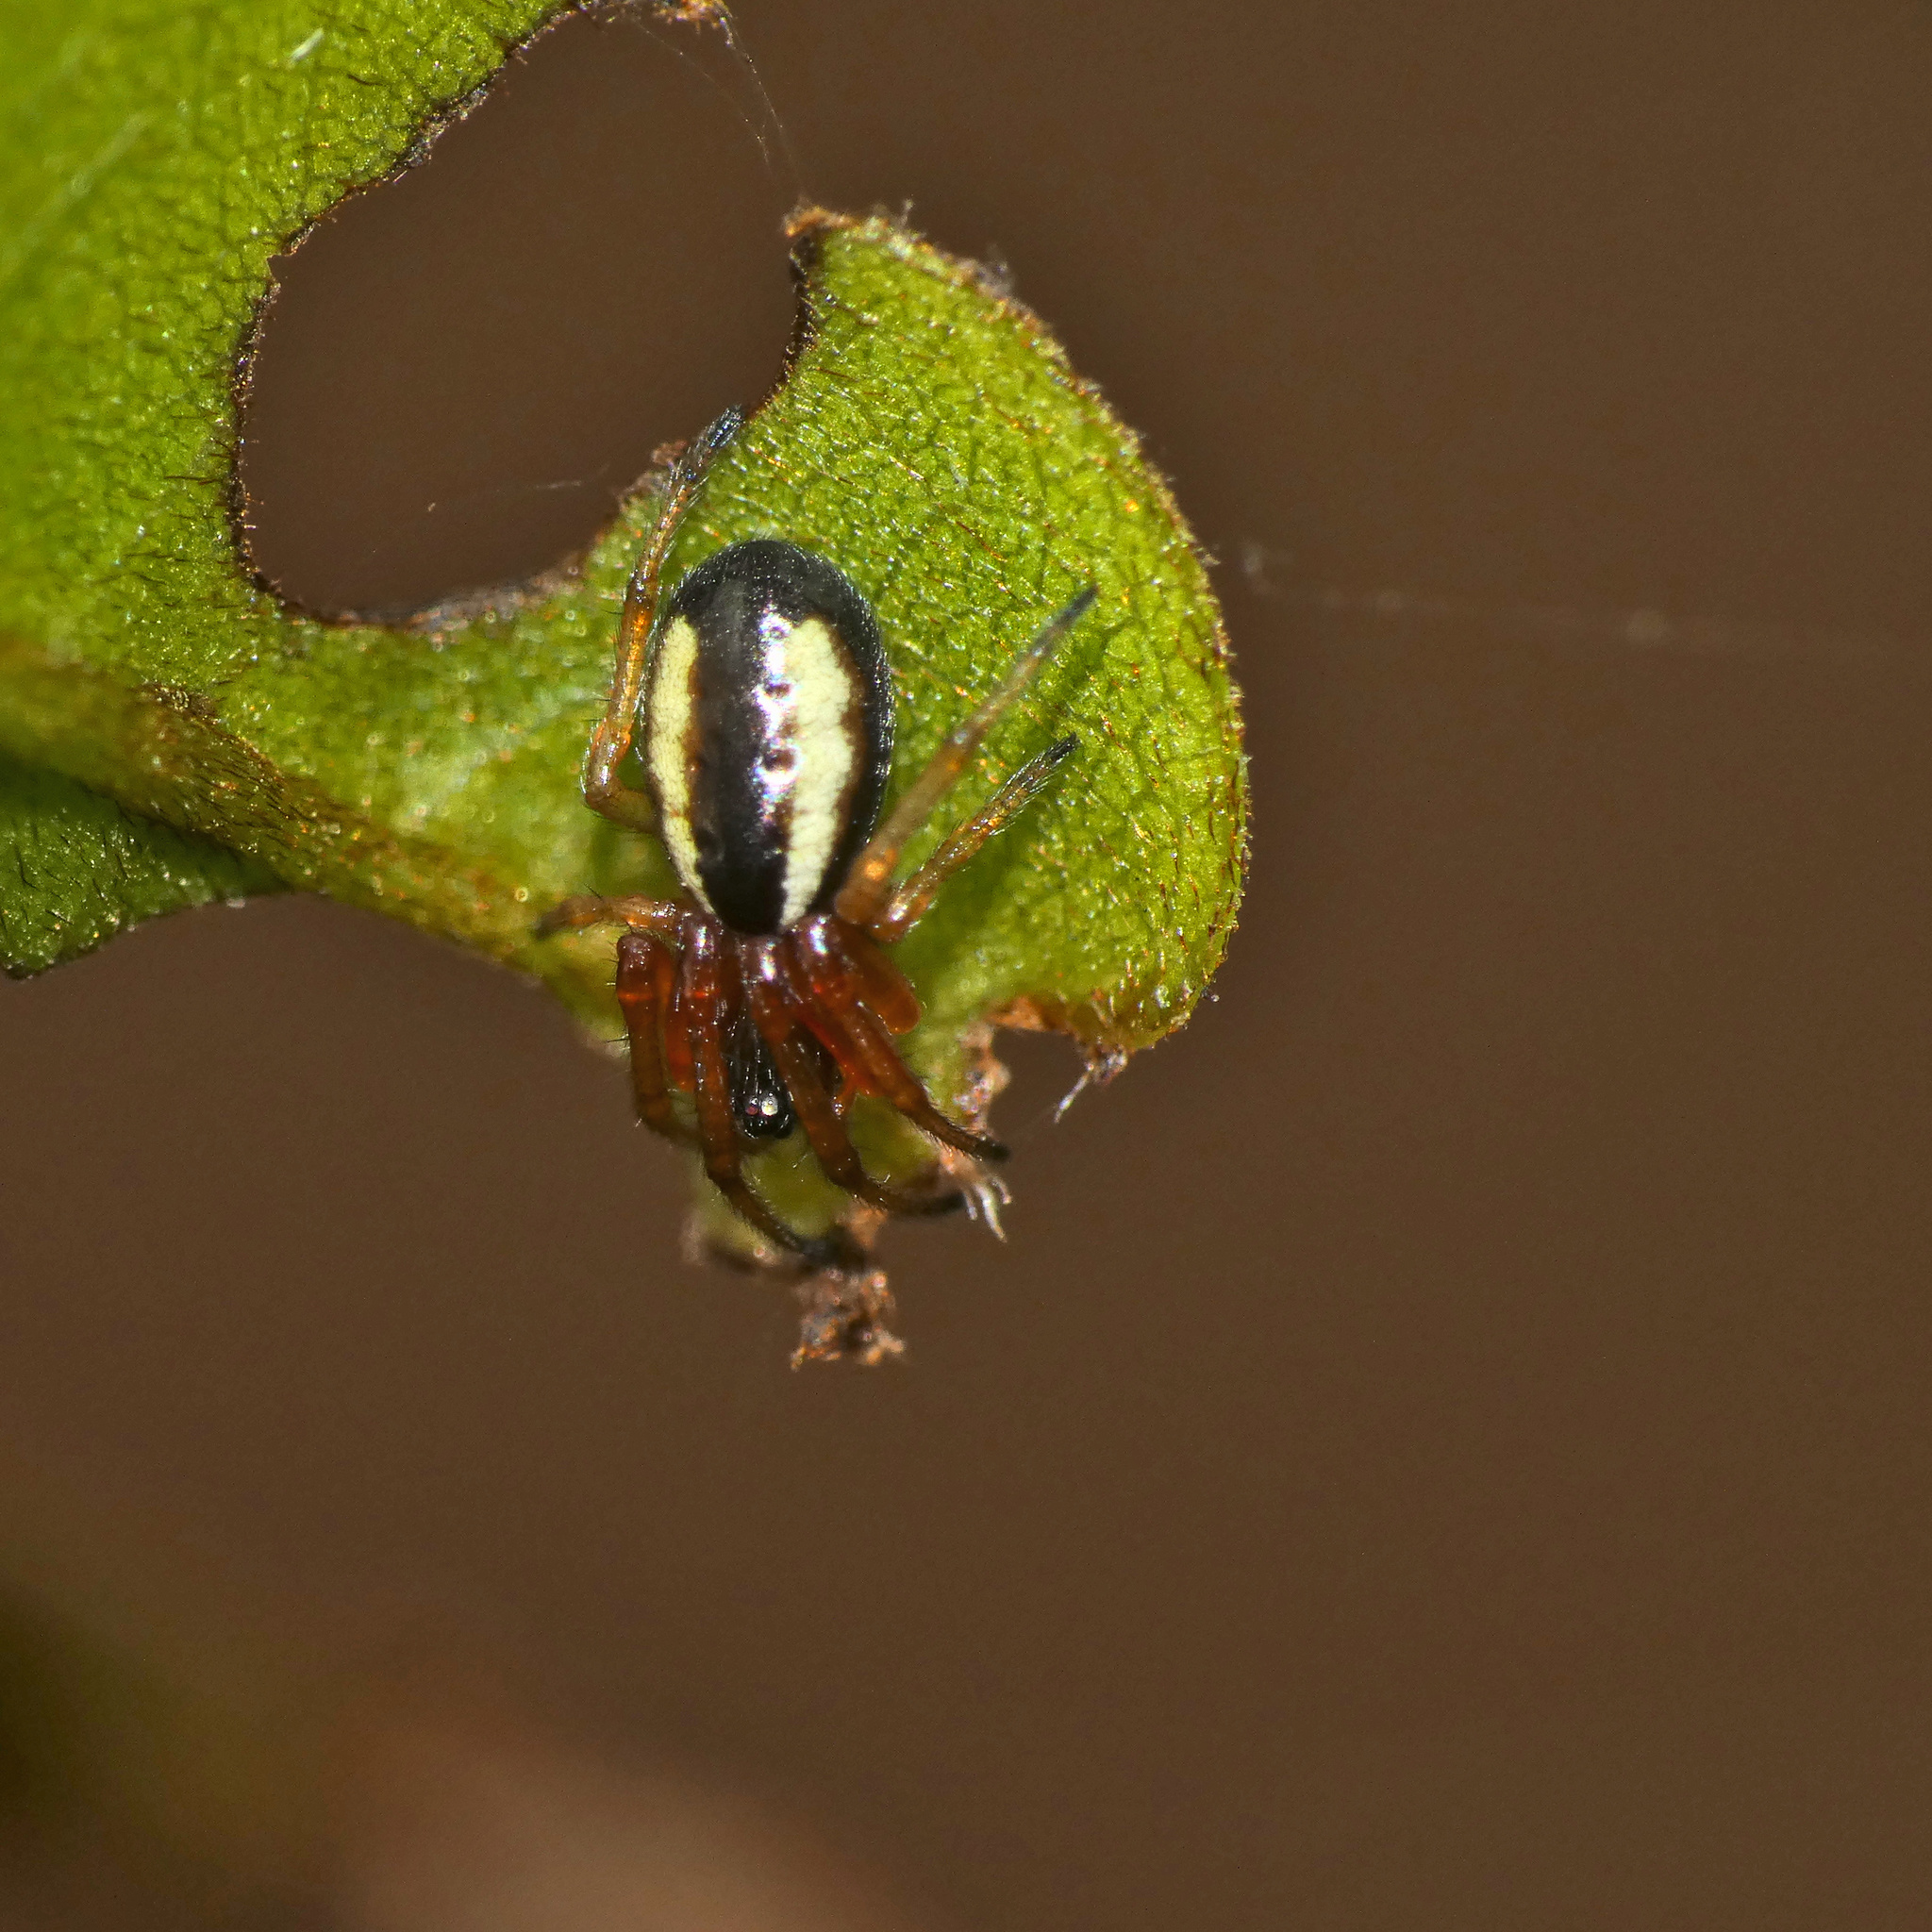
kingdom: Animalia
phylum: Arthropoda
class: Arachnida
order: Araneae
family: Araneidae
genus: Nemoscolus
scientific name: Nemoscolus cotti
